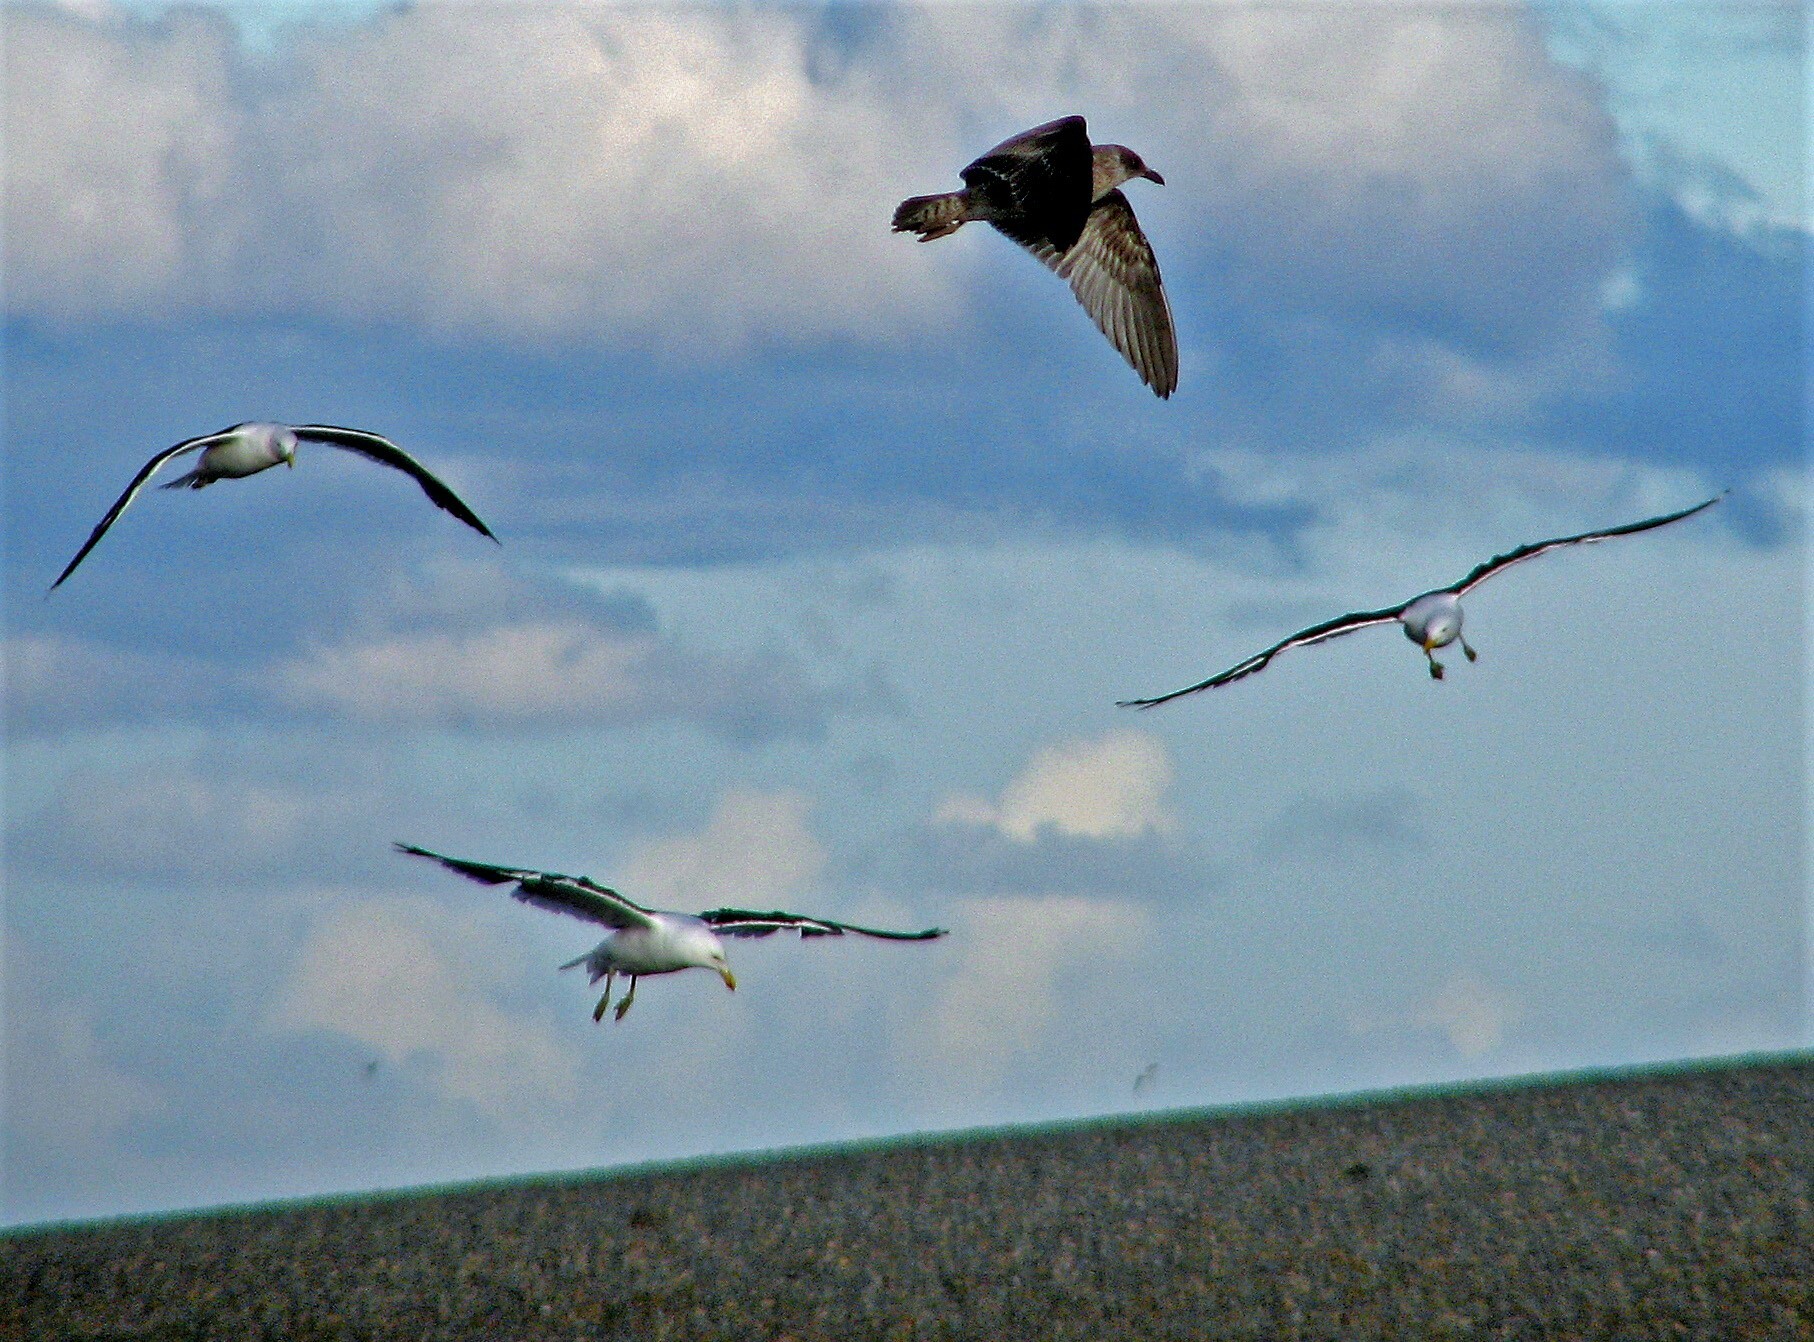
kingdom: Animalia
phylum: Chordata
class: Aves
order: Charadriiformes
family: Laridae
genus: Larus
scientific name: Larus dominicanus
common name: Kelp gull
